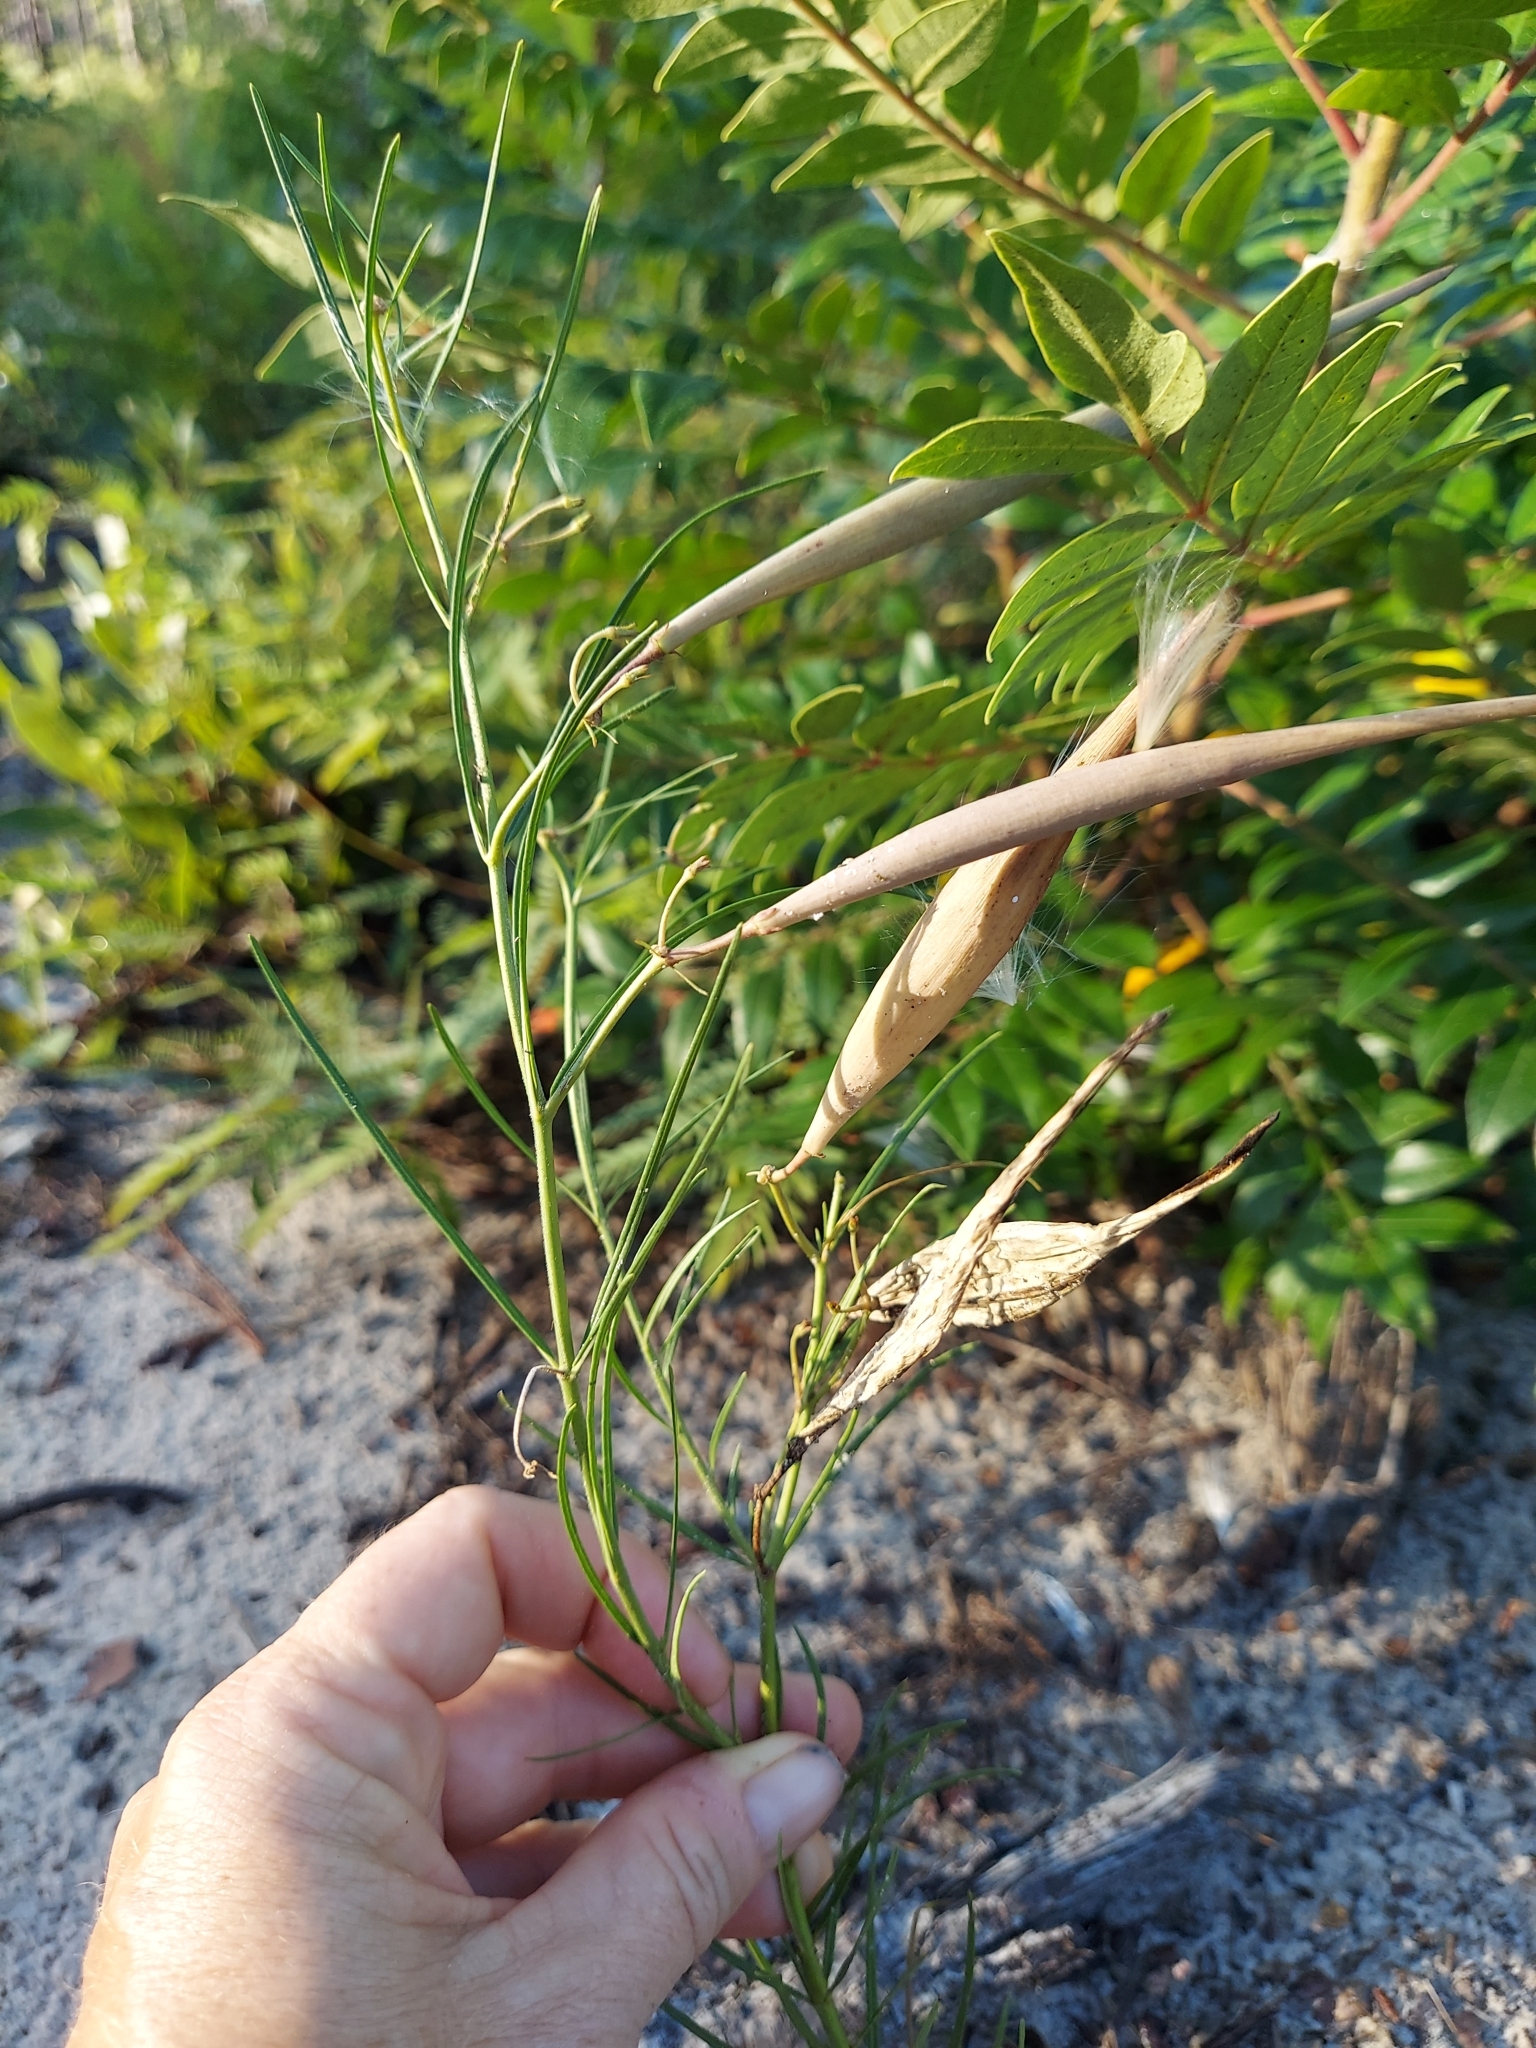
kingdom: Plantae
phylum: Tracheophyta
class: Magnoliopsida
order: Gentianales
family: Apocynaceae
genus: Asclepias
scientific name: Asclepias verticillata
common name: Eastern whorled milkweed
